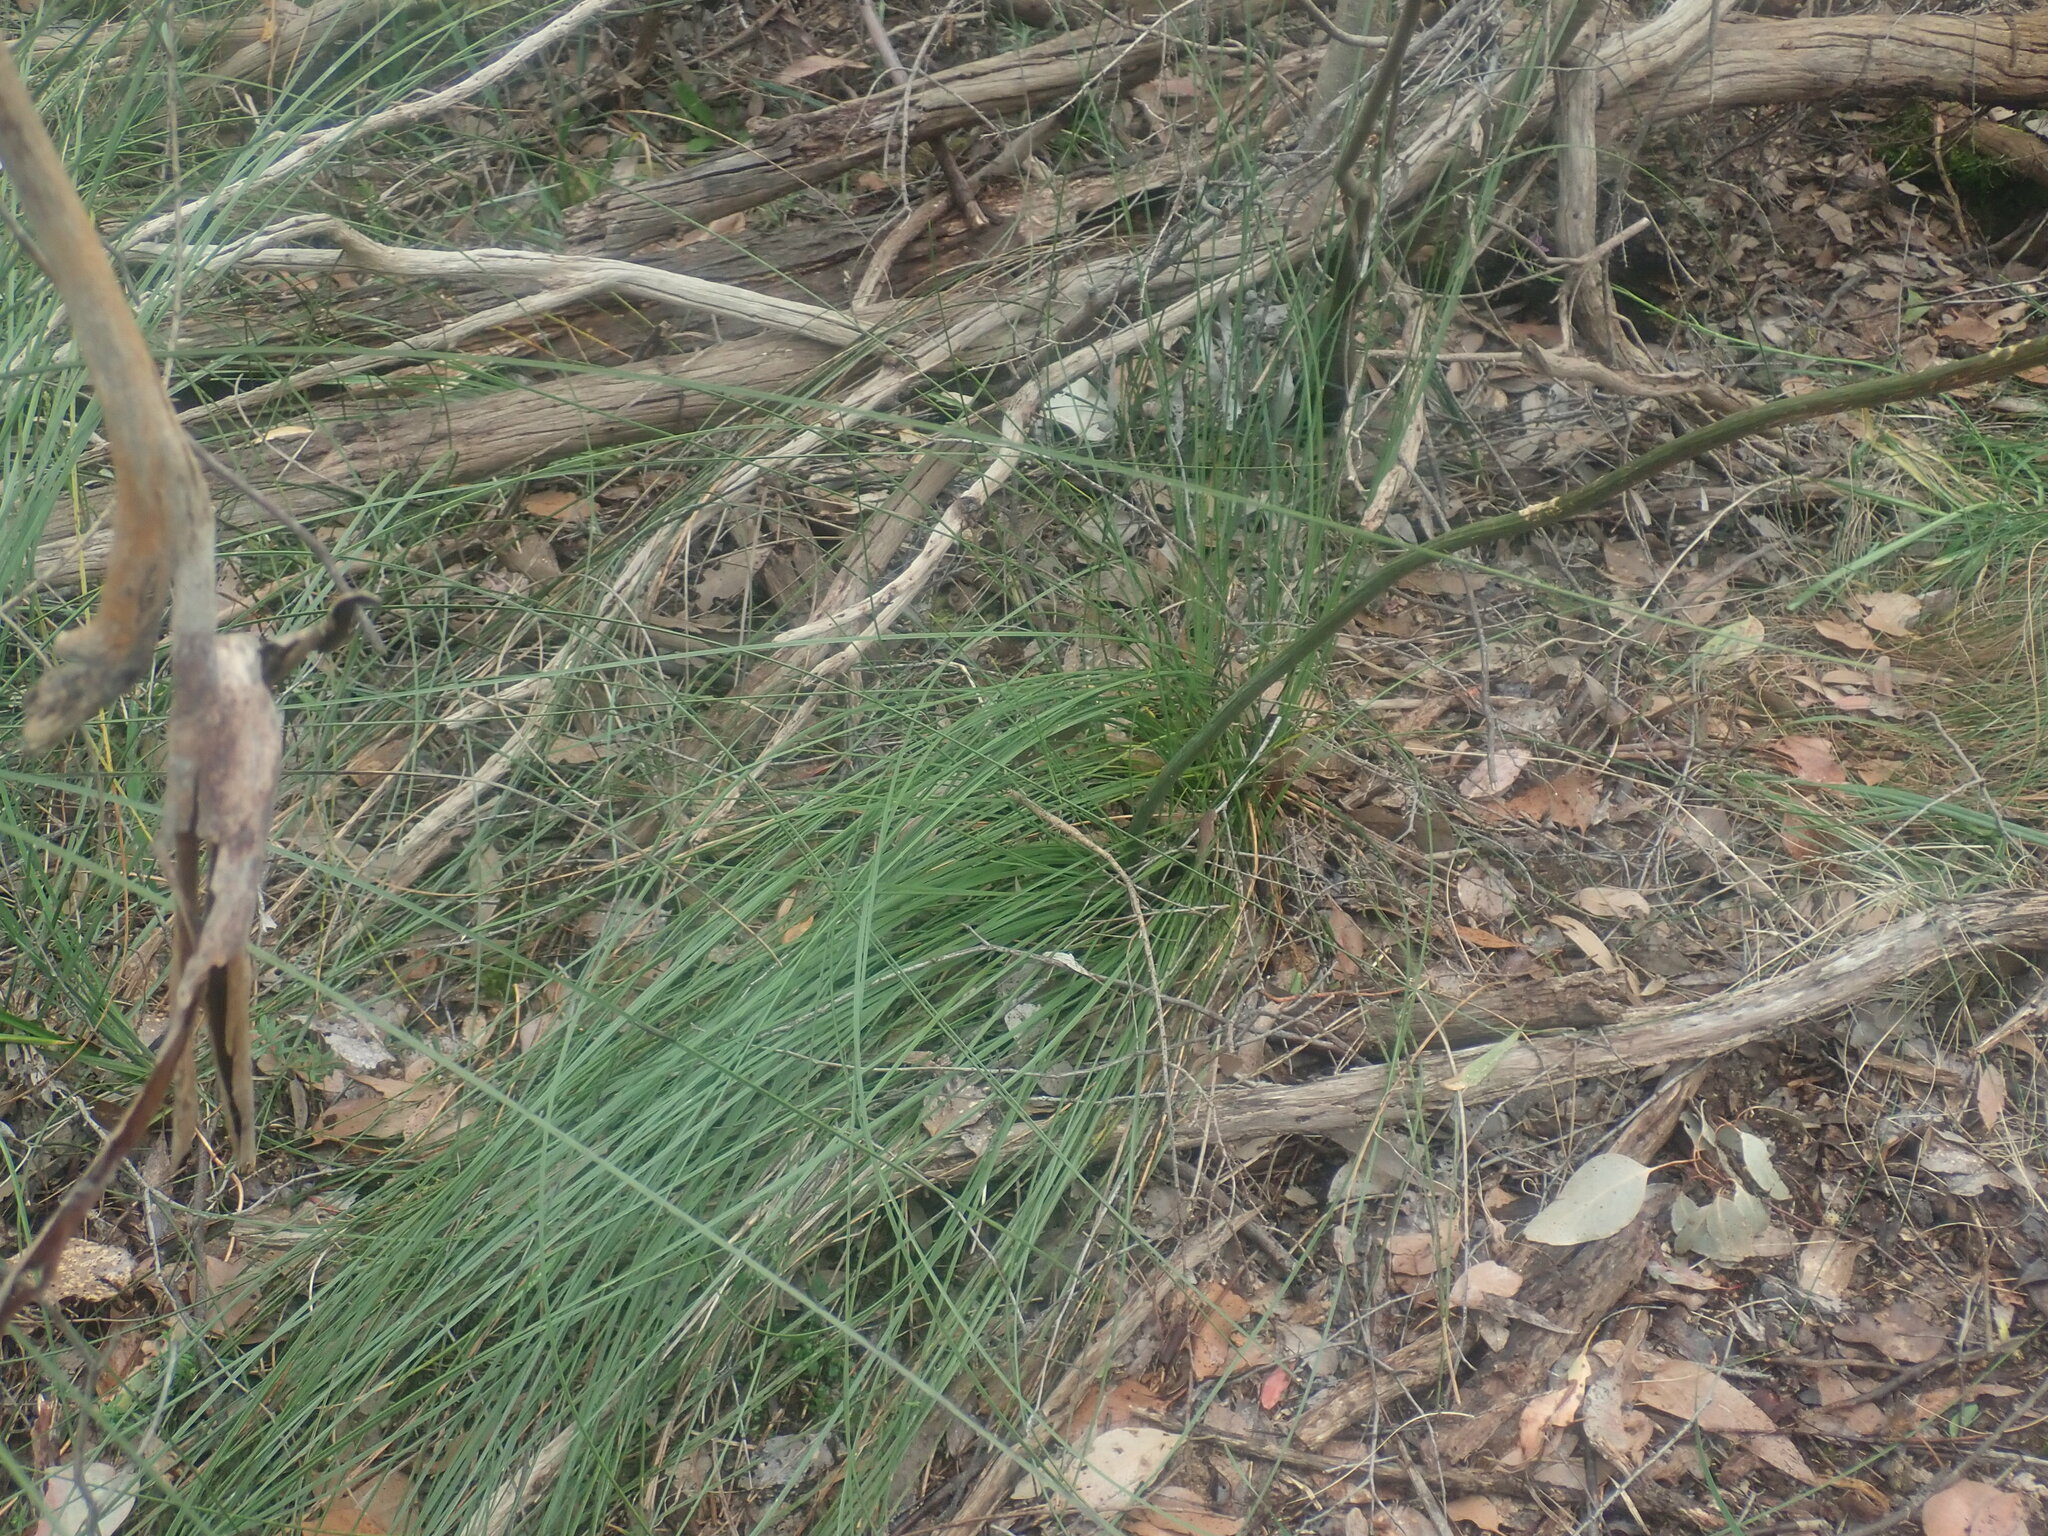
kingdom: Plantae
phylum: Tracheophyta
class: Liliopsida
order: Asparagales
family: Asphodelaceae
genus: Xanthorrhoea
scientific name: Xanthorrhoea minor
